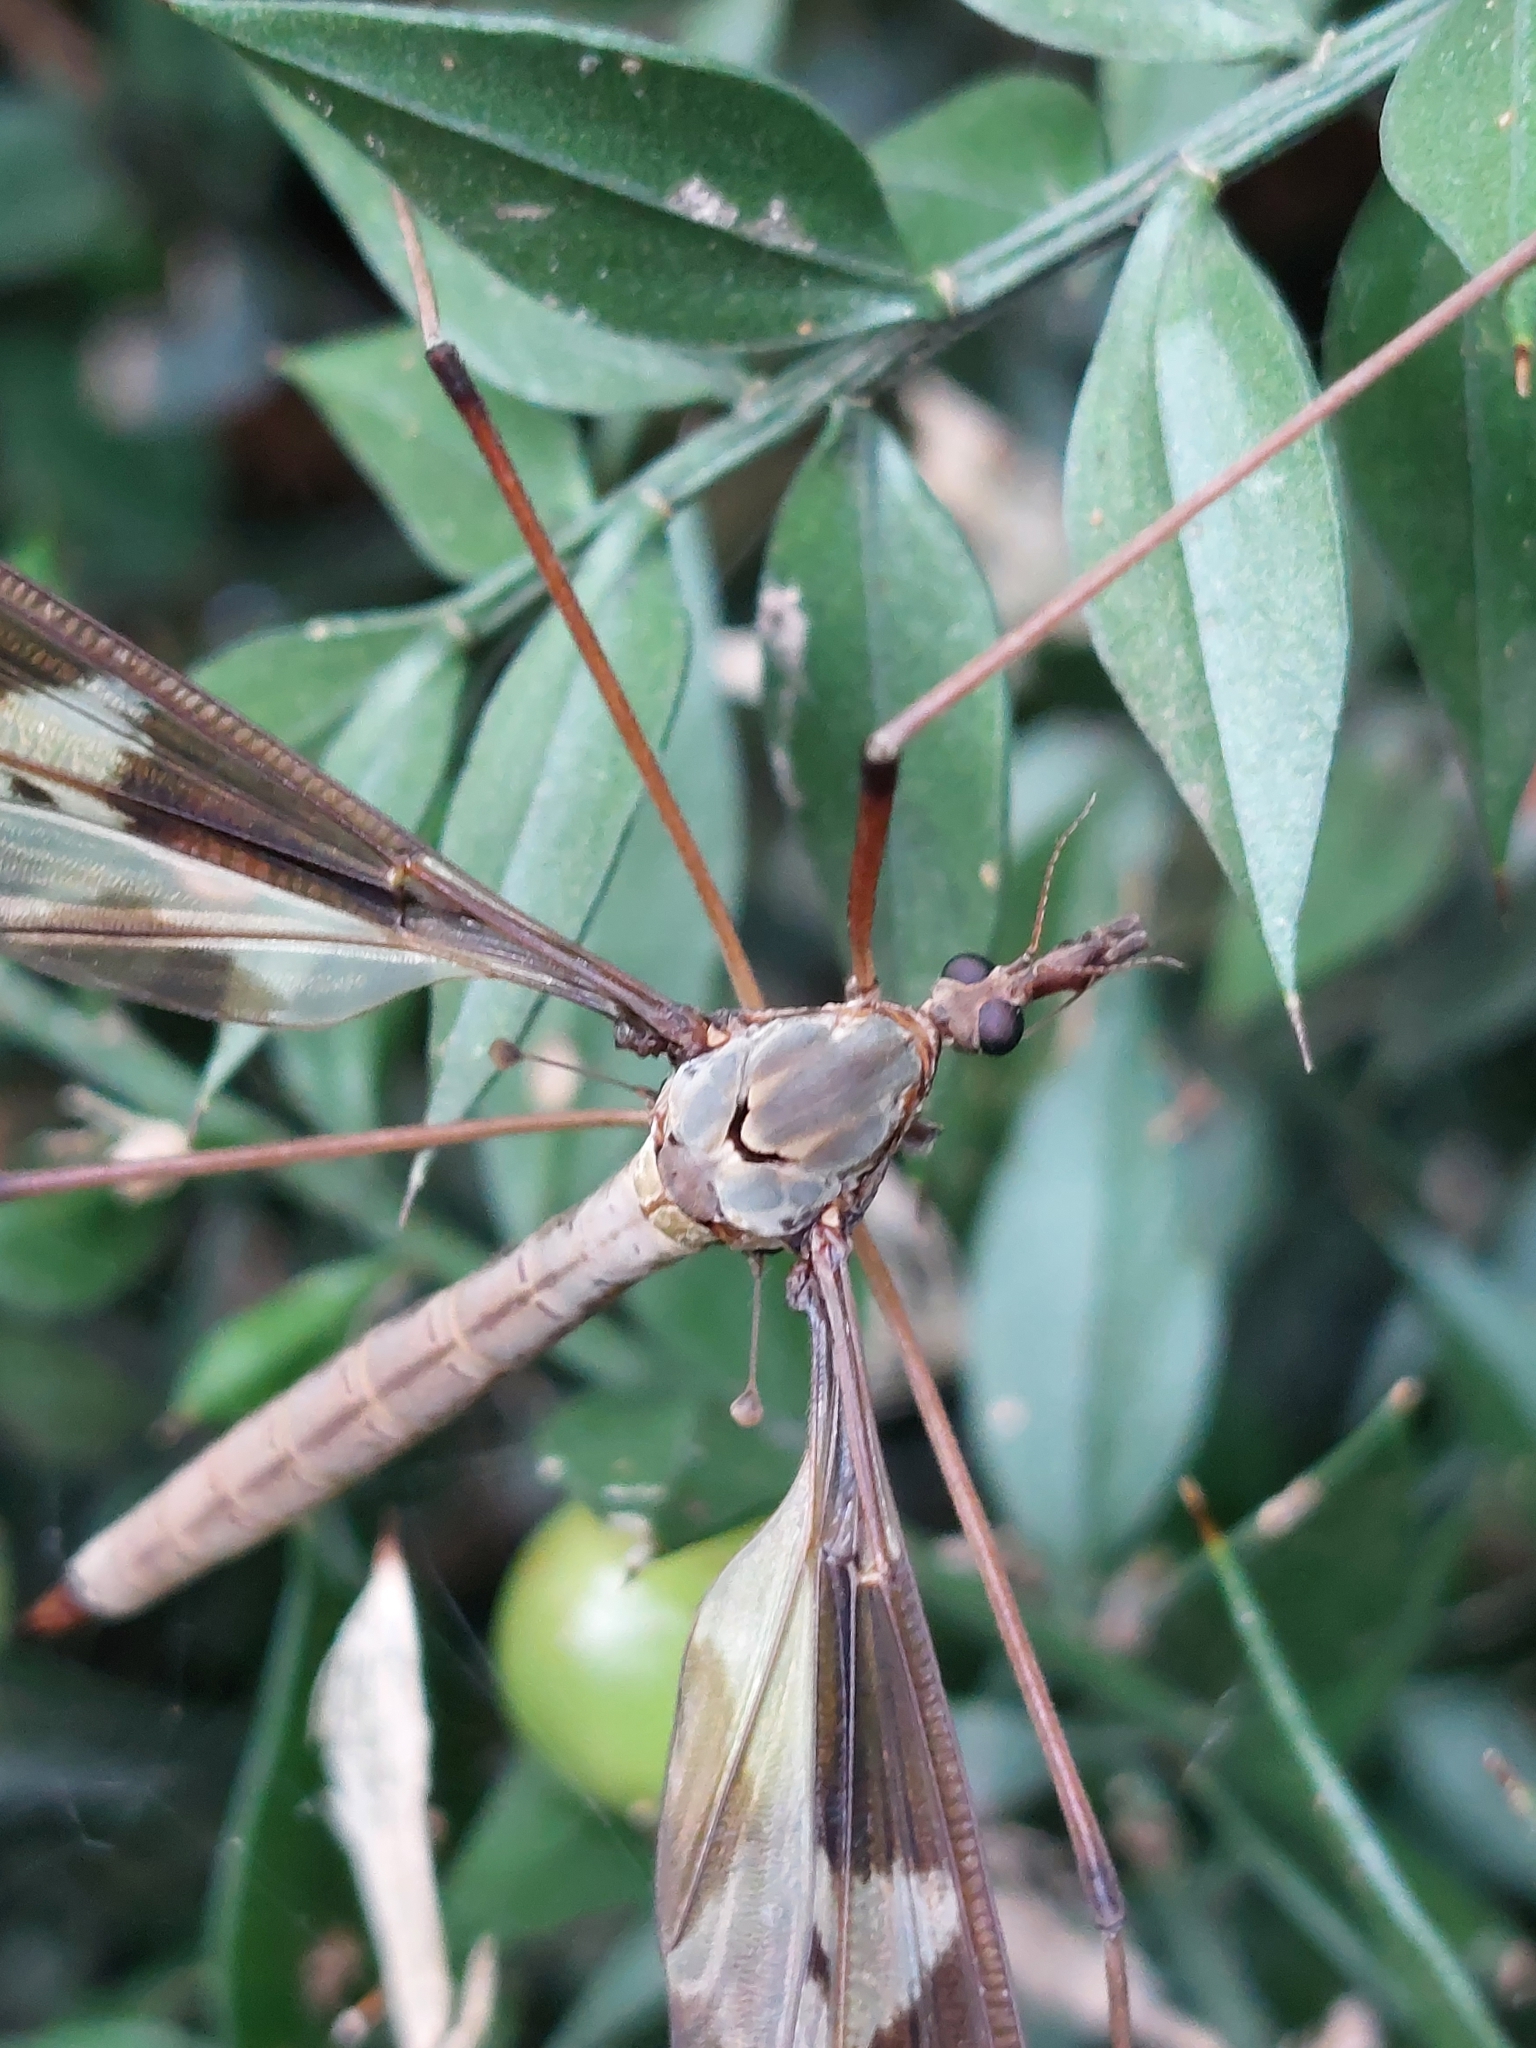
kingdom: Animalia
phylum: Arthropoda
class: Insecta
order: Diptera
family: Tipulidae
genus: Tipula
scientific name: Tipula maxima
